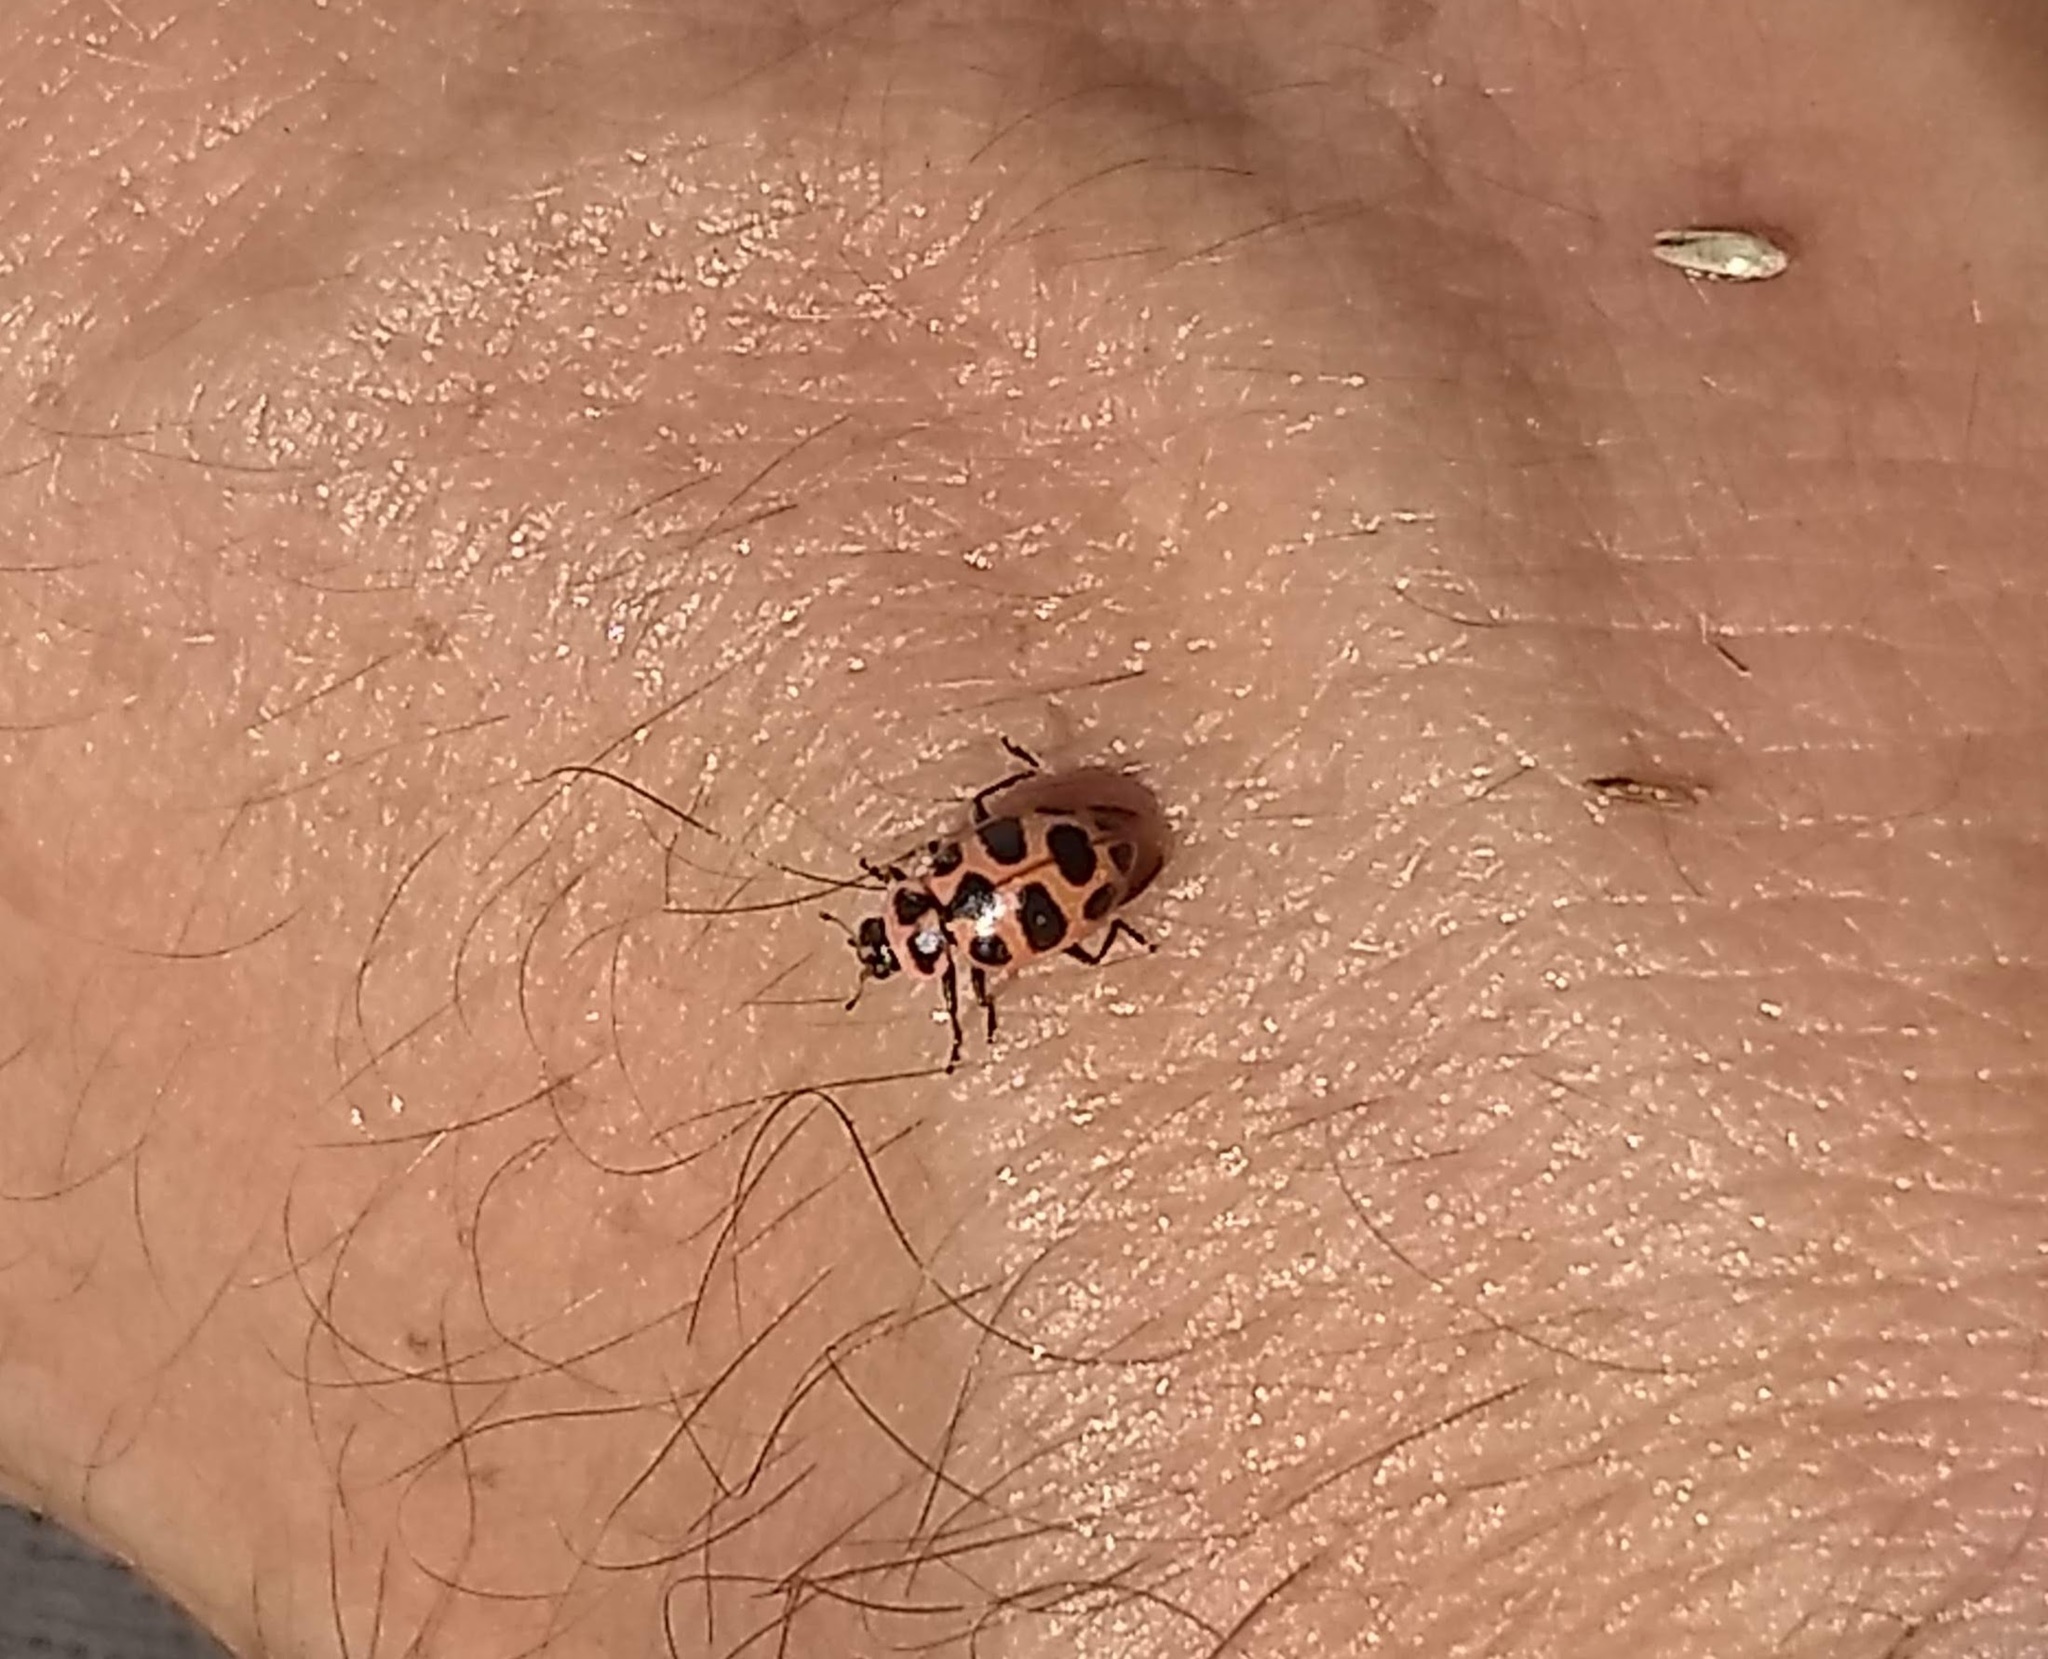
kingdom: Animalia
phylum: Arthropoda
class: Insecta
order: Coleoptera
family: Coccinellidae
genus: Coleomegilla
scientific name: Coleomegilla maculata
